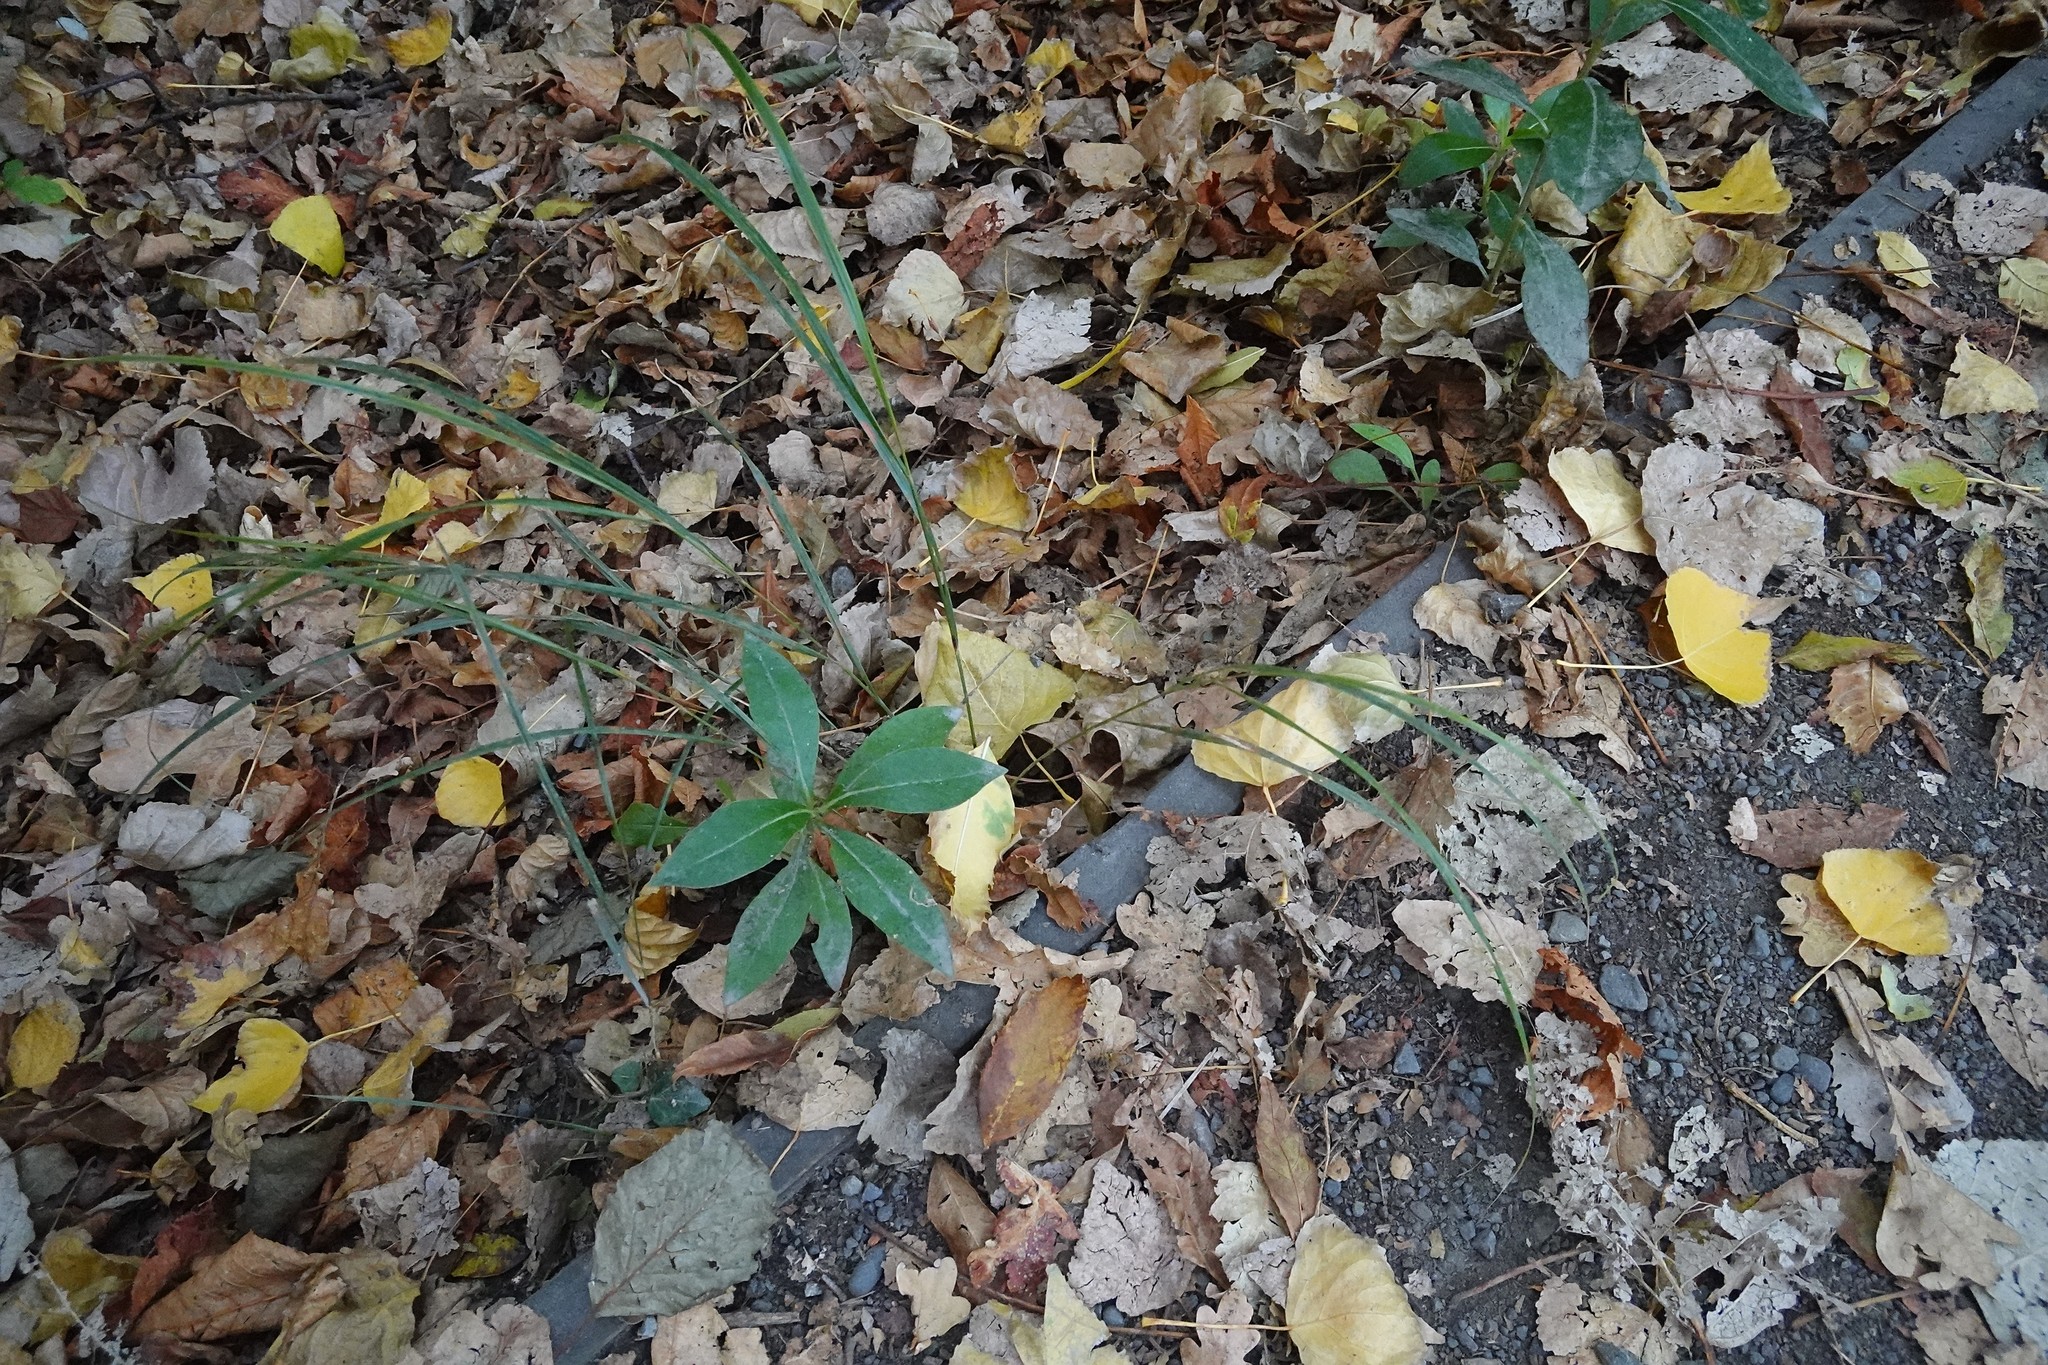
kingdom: Plantae
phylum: Tracheophyta
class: Magnoliopsida
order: Gentianales
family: Rubiaceae
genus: Coprosma
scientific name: Coprosma robusta
